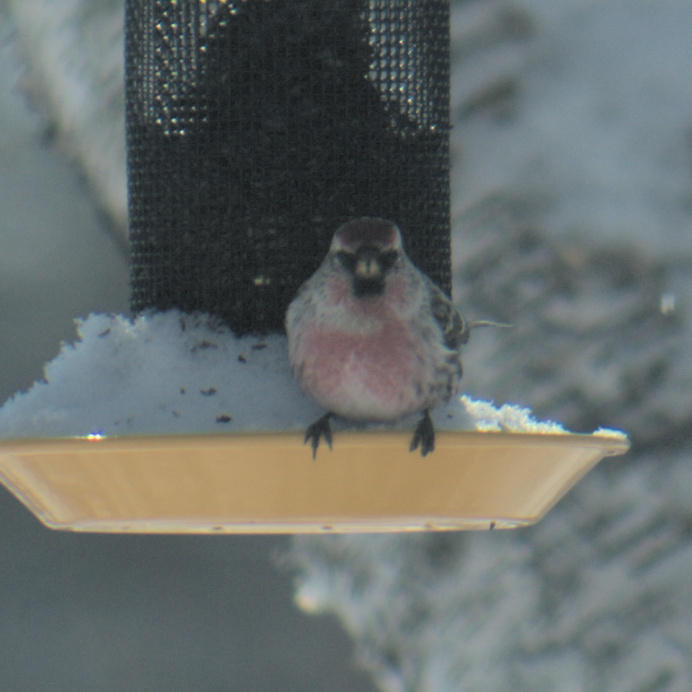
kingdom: Animalia
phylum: Chordata
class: Aves
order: Passeriformes
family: Fringillidae
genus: Acanthis
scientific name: Acanthis flammea
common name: Common redpoll
